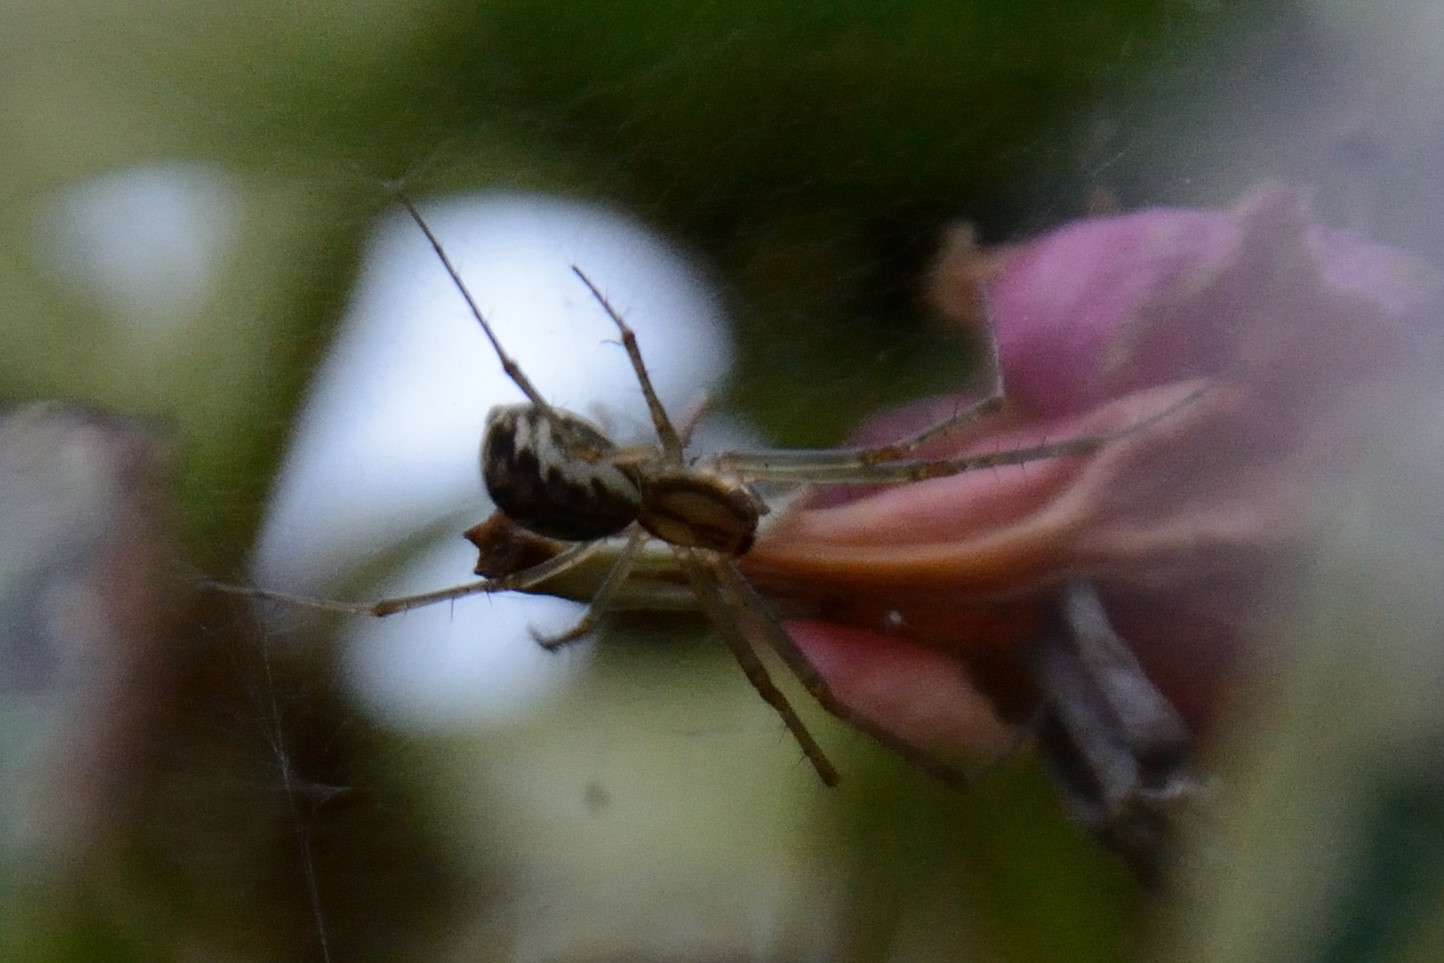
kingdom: Animalia
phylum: Arthropoda
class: Arachnida
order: Araneae
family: Linyphiidae
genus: Linyphia
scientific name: Linyphia triangularis
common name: Money spider
